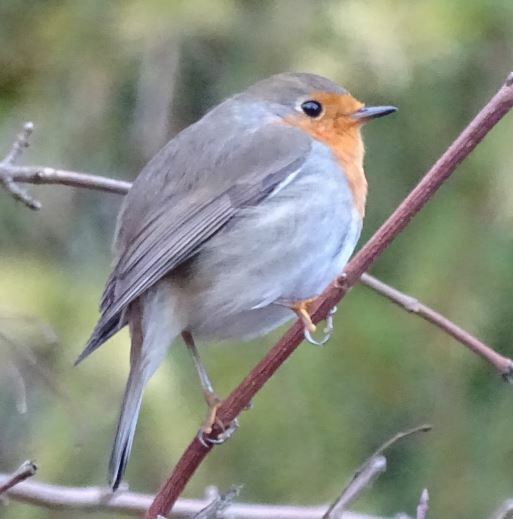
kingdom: Animalia
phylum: Chordata
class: Aves
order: Passeriformes
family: Muscicapidae
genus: Erithacus
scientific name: Erithacus rubecula
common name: European robin
